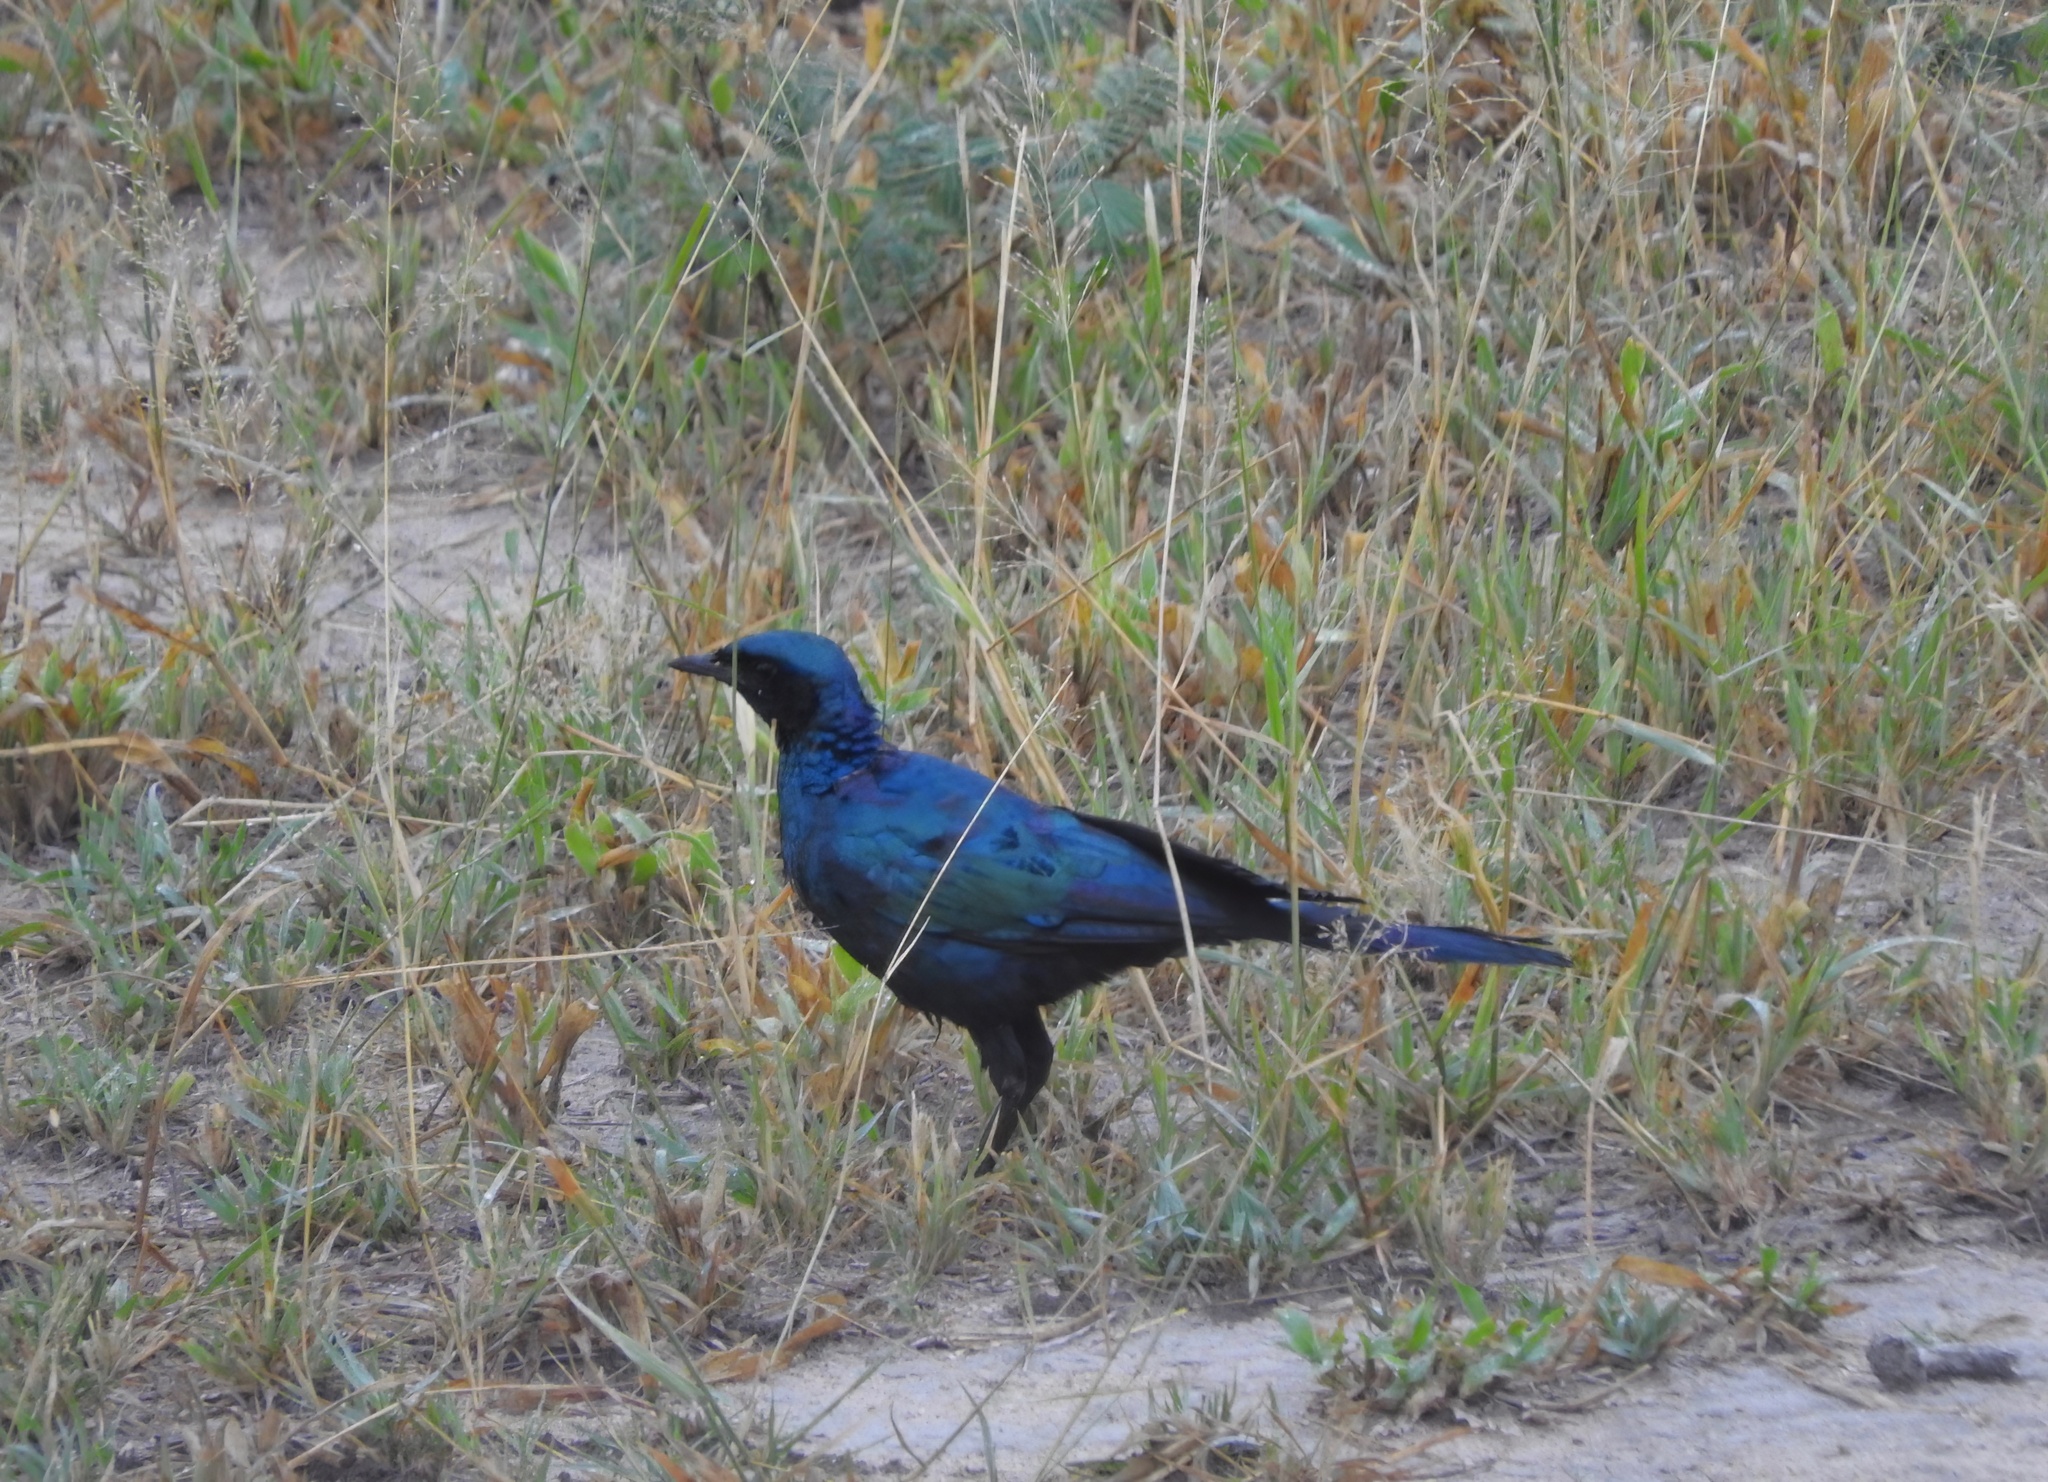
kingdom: Animalia
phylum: Chordata
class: Aves
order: Passeriformes
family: Sturnidae
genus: Lamprotornis
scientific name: Lamprotornis australis
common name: Burchell's starling
